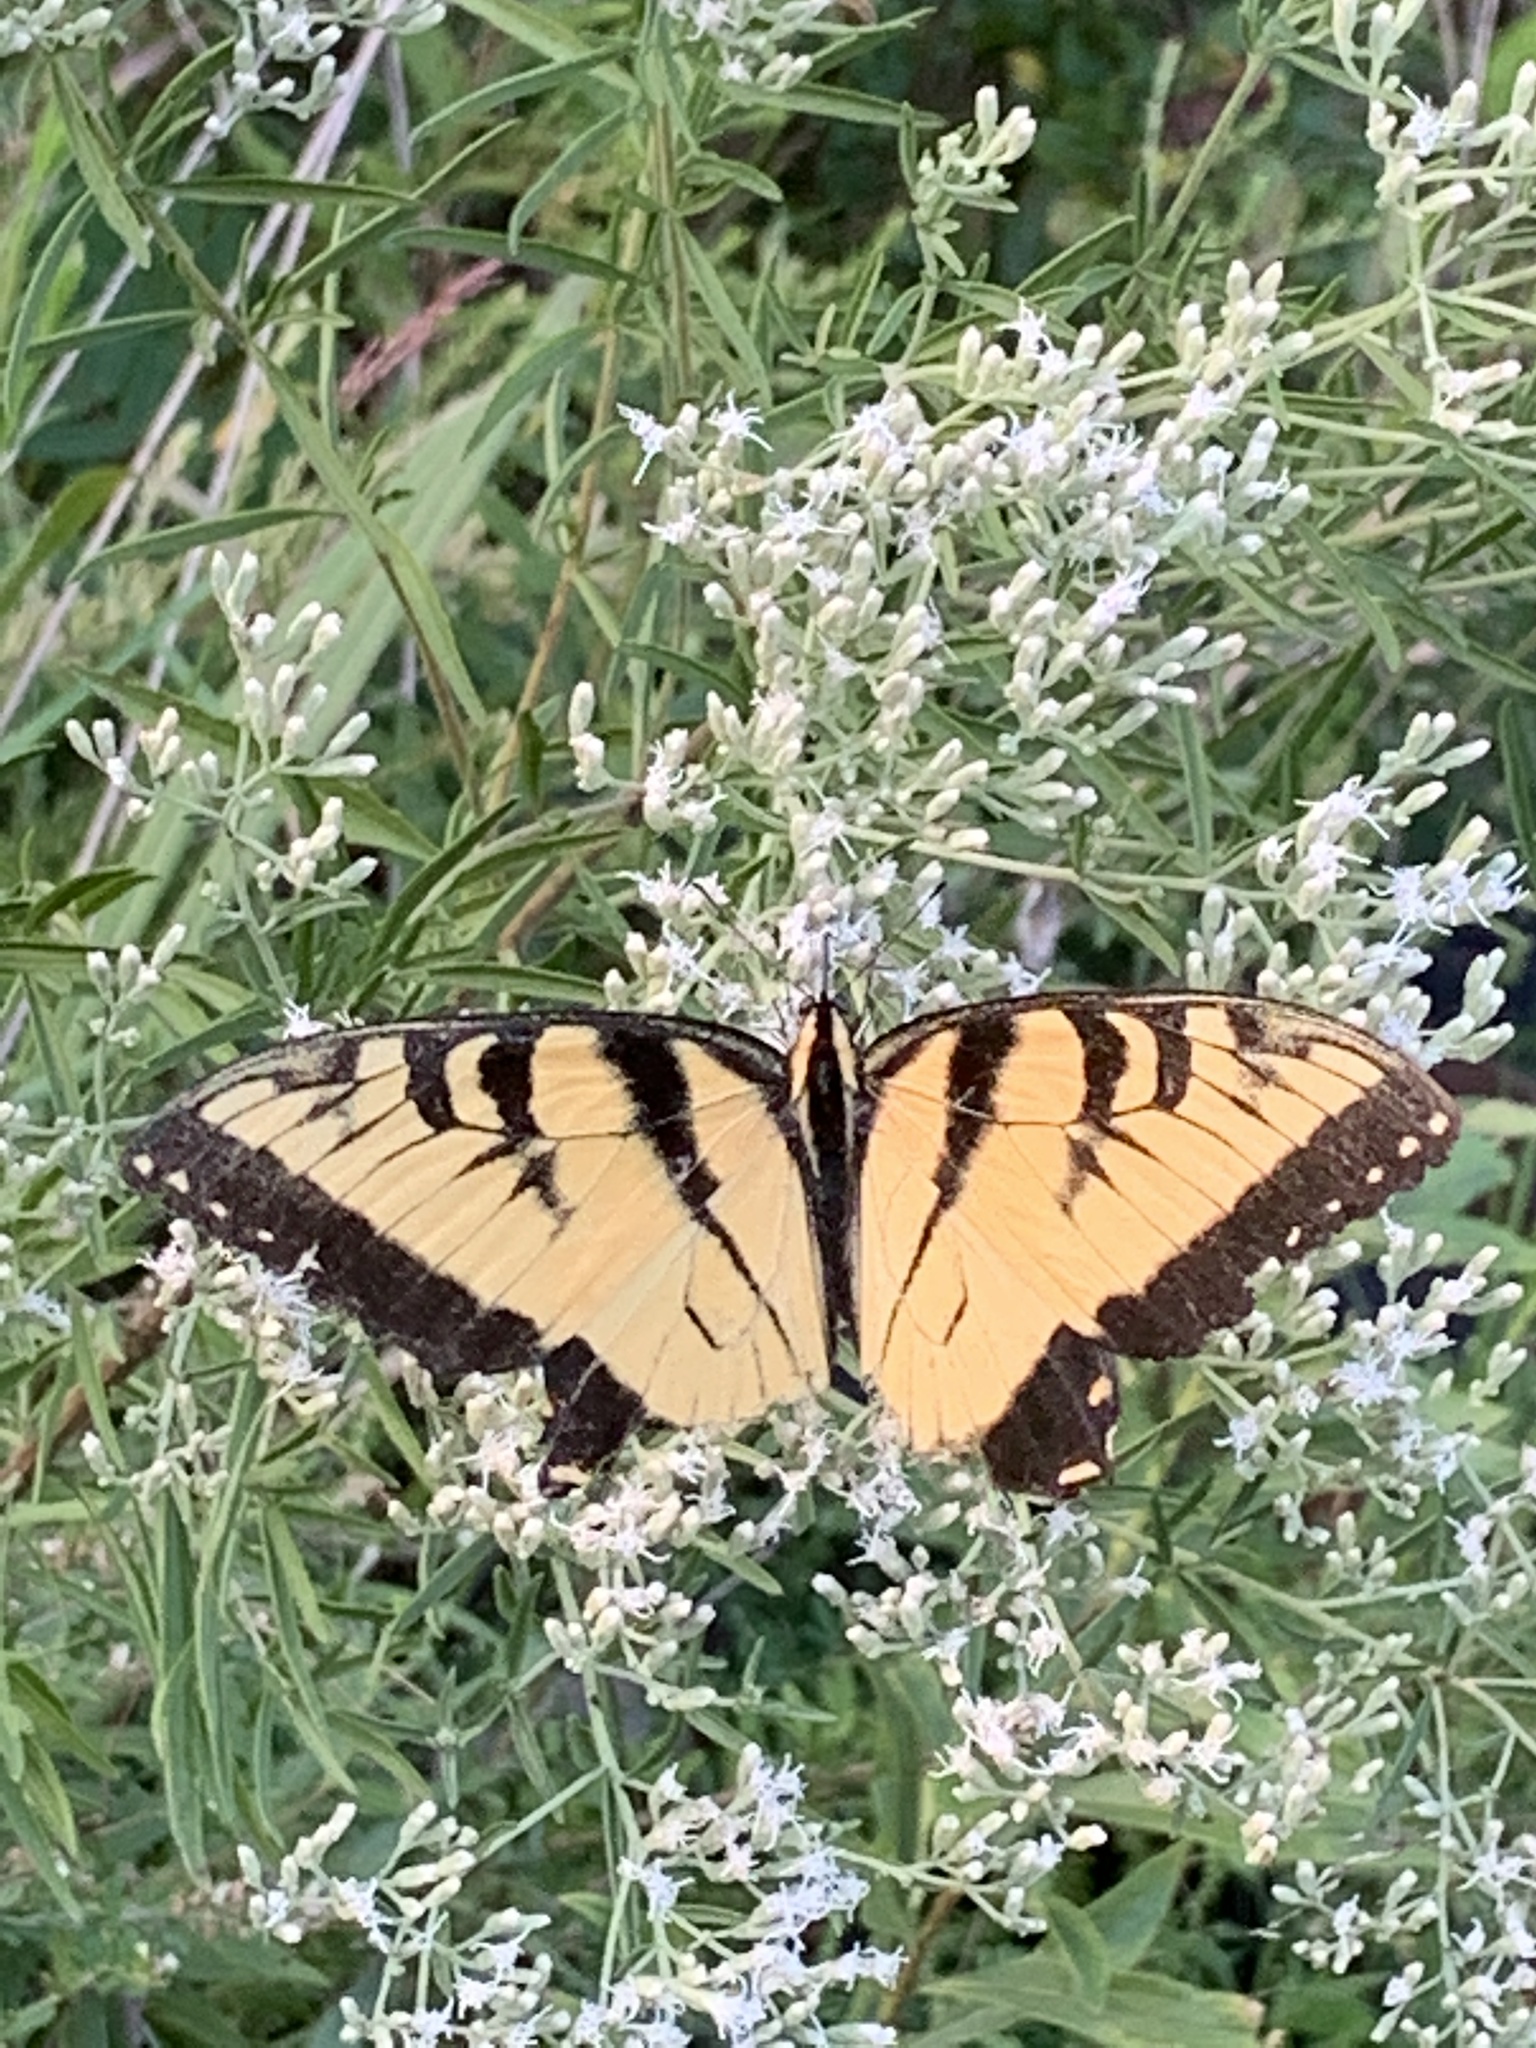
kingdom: Animalia
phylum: Arthropoda
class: Insecta
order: Lepidoptera
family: Papilionidae
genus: Papilio
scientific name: Papilio glaucus
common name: Tiger swallowtail
